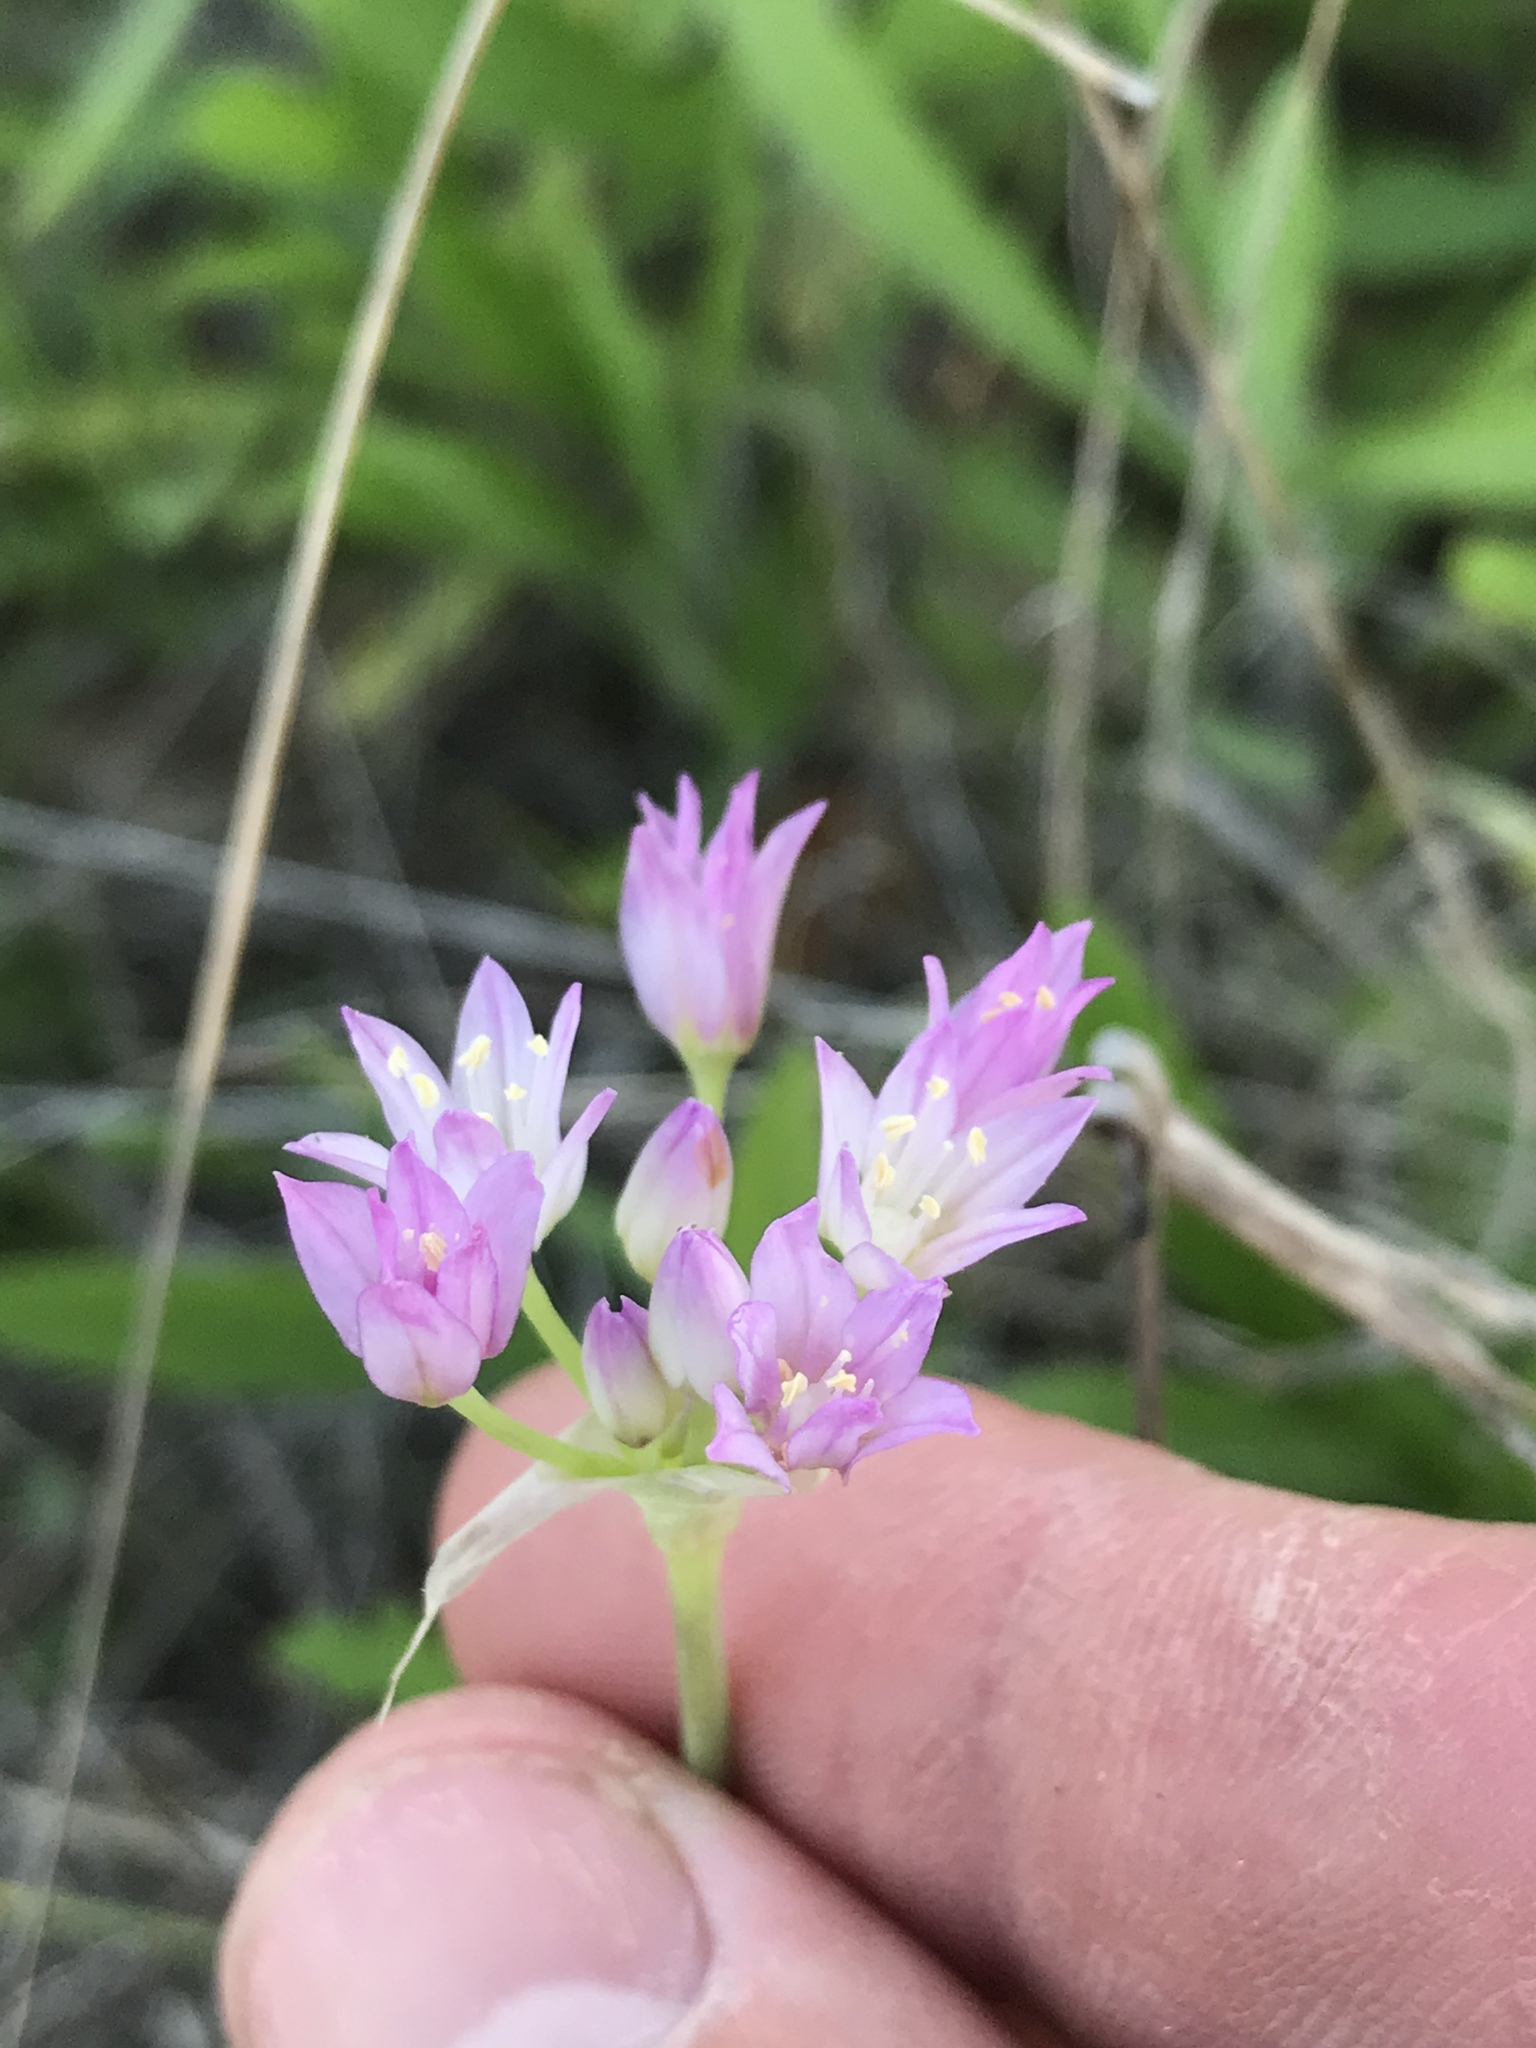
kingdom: Plantae
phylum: Tracheophyta
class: Liliopsida
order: Asparagales
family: Amaryllidaceae
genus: Allium
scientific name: Allium drummondii
